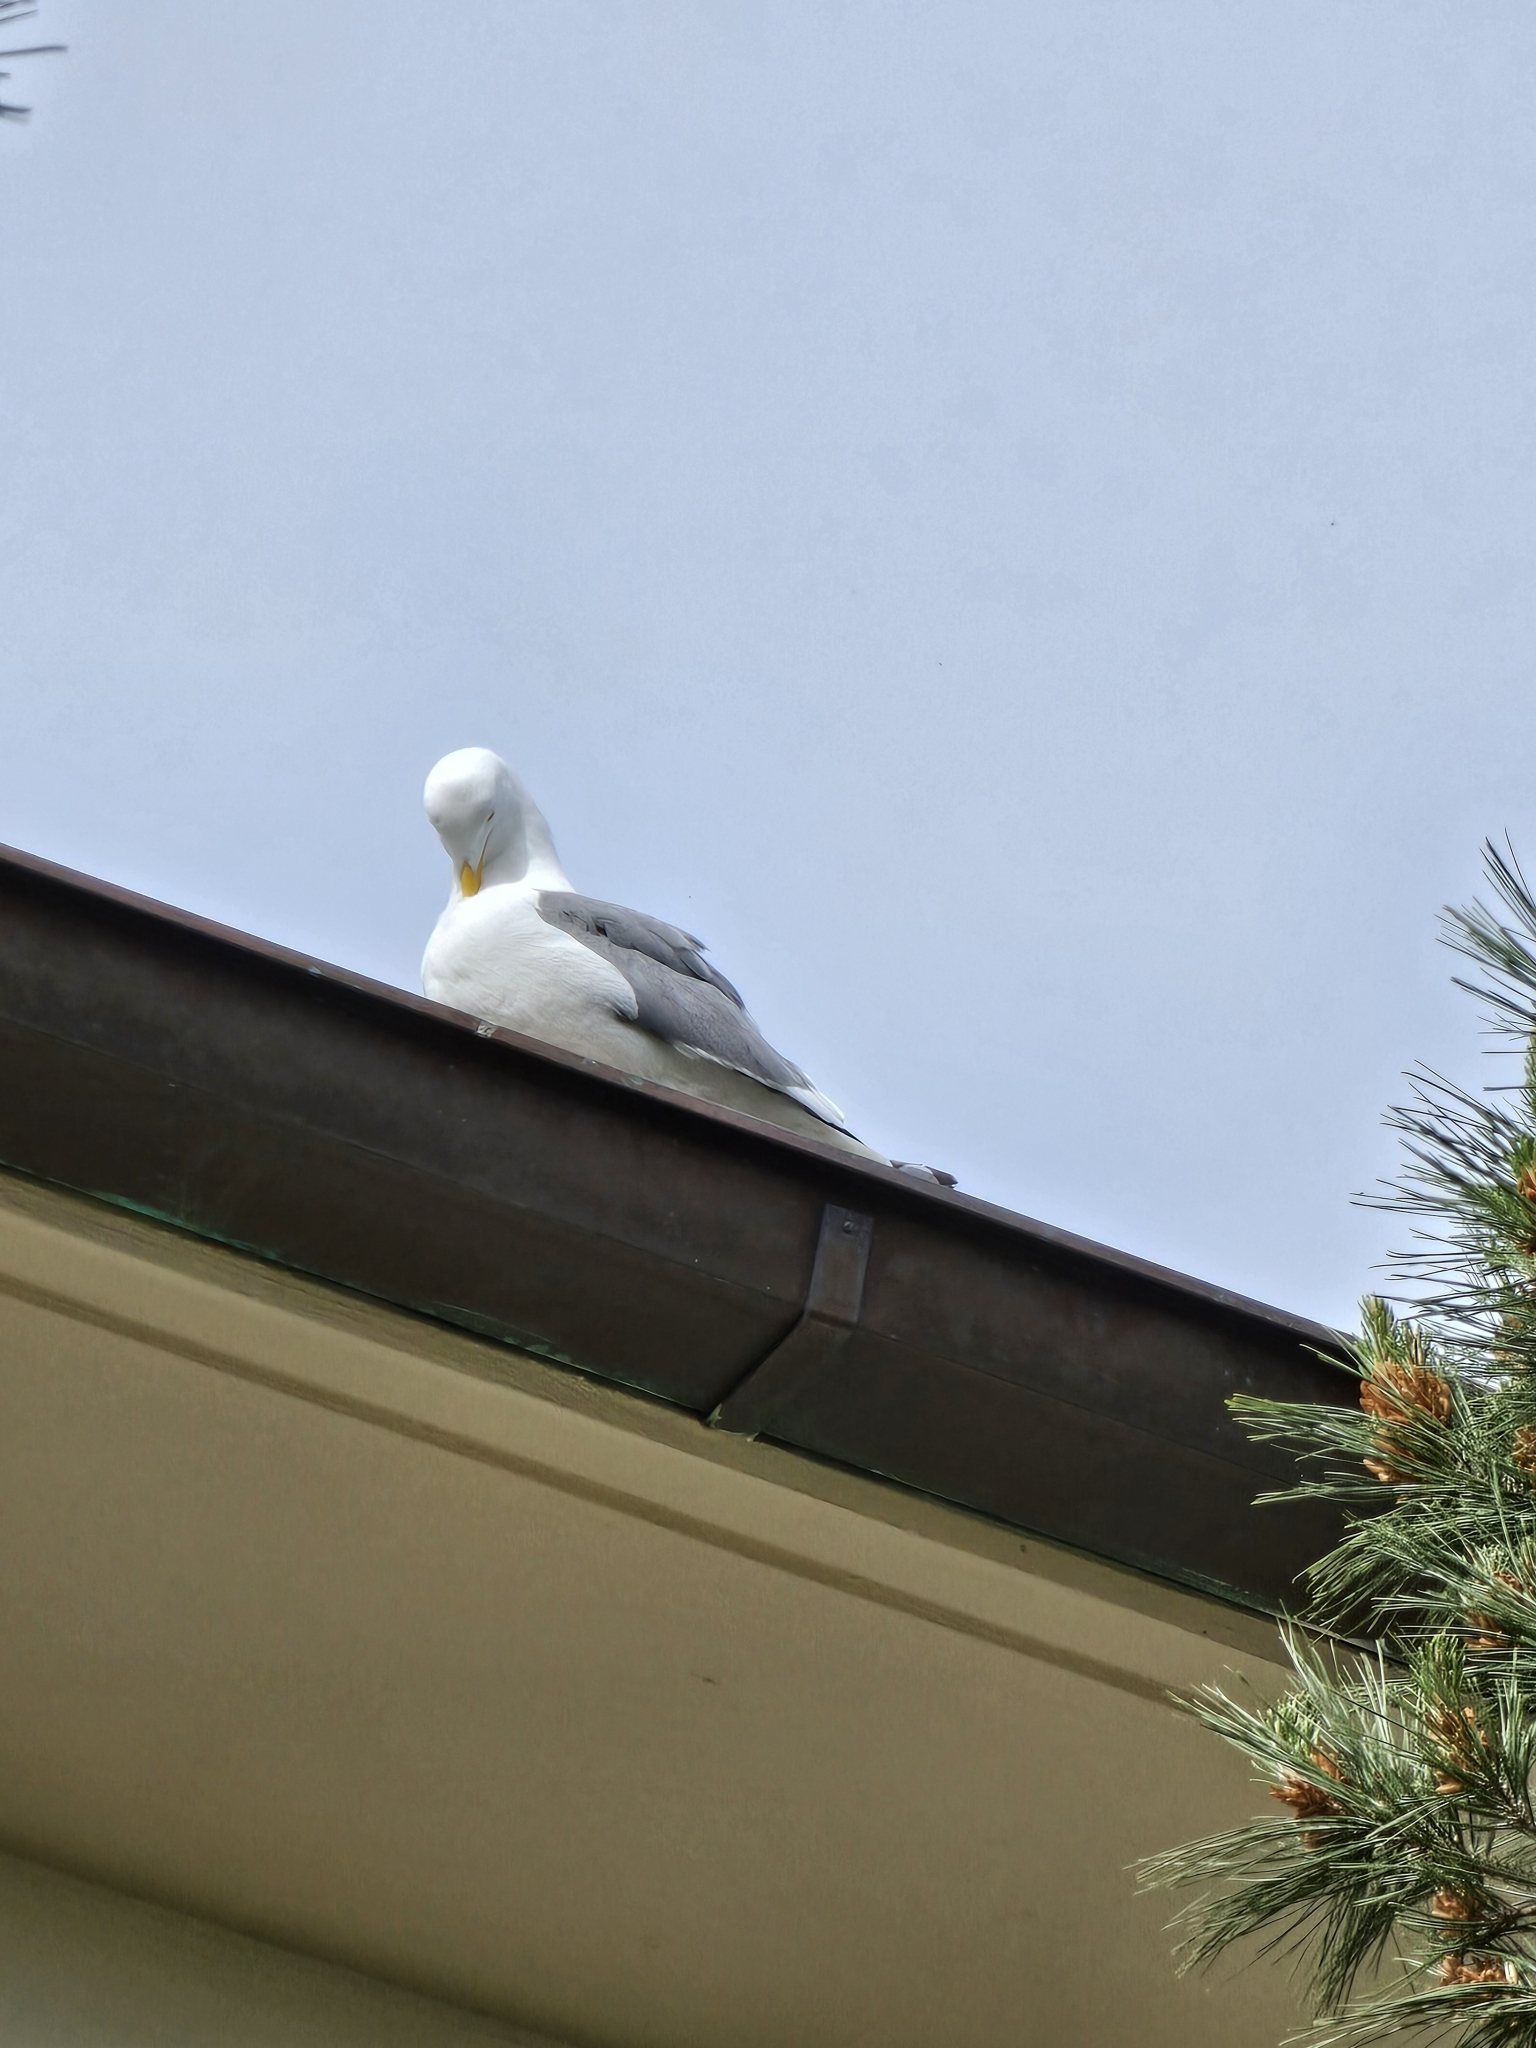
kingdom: Animalia
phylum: Chordata
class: Aves
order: Charadriiformes
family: Laridae
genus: Larus
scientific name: Larus occidentalis
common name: Western gull
